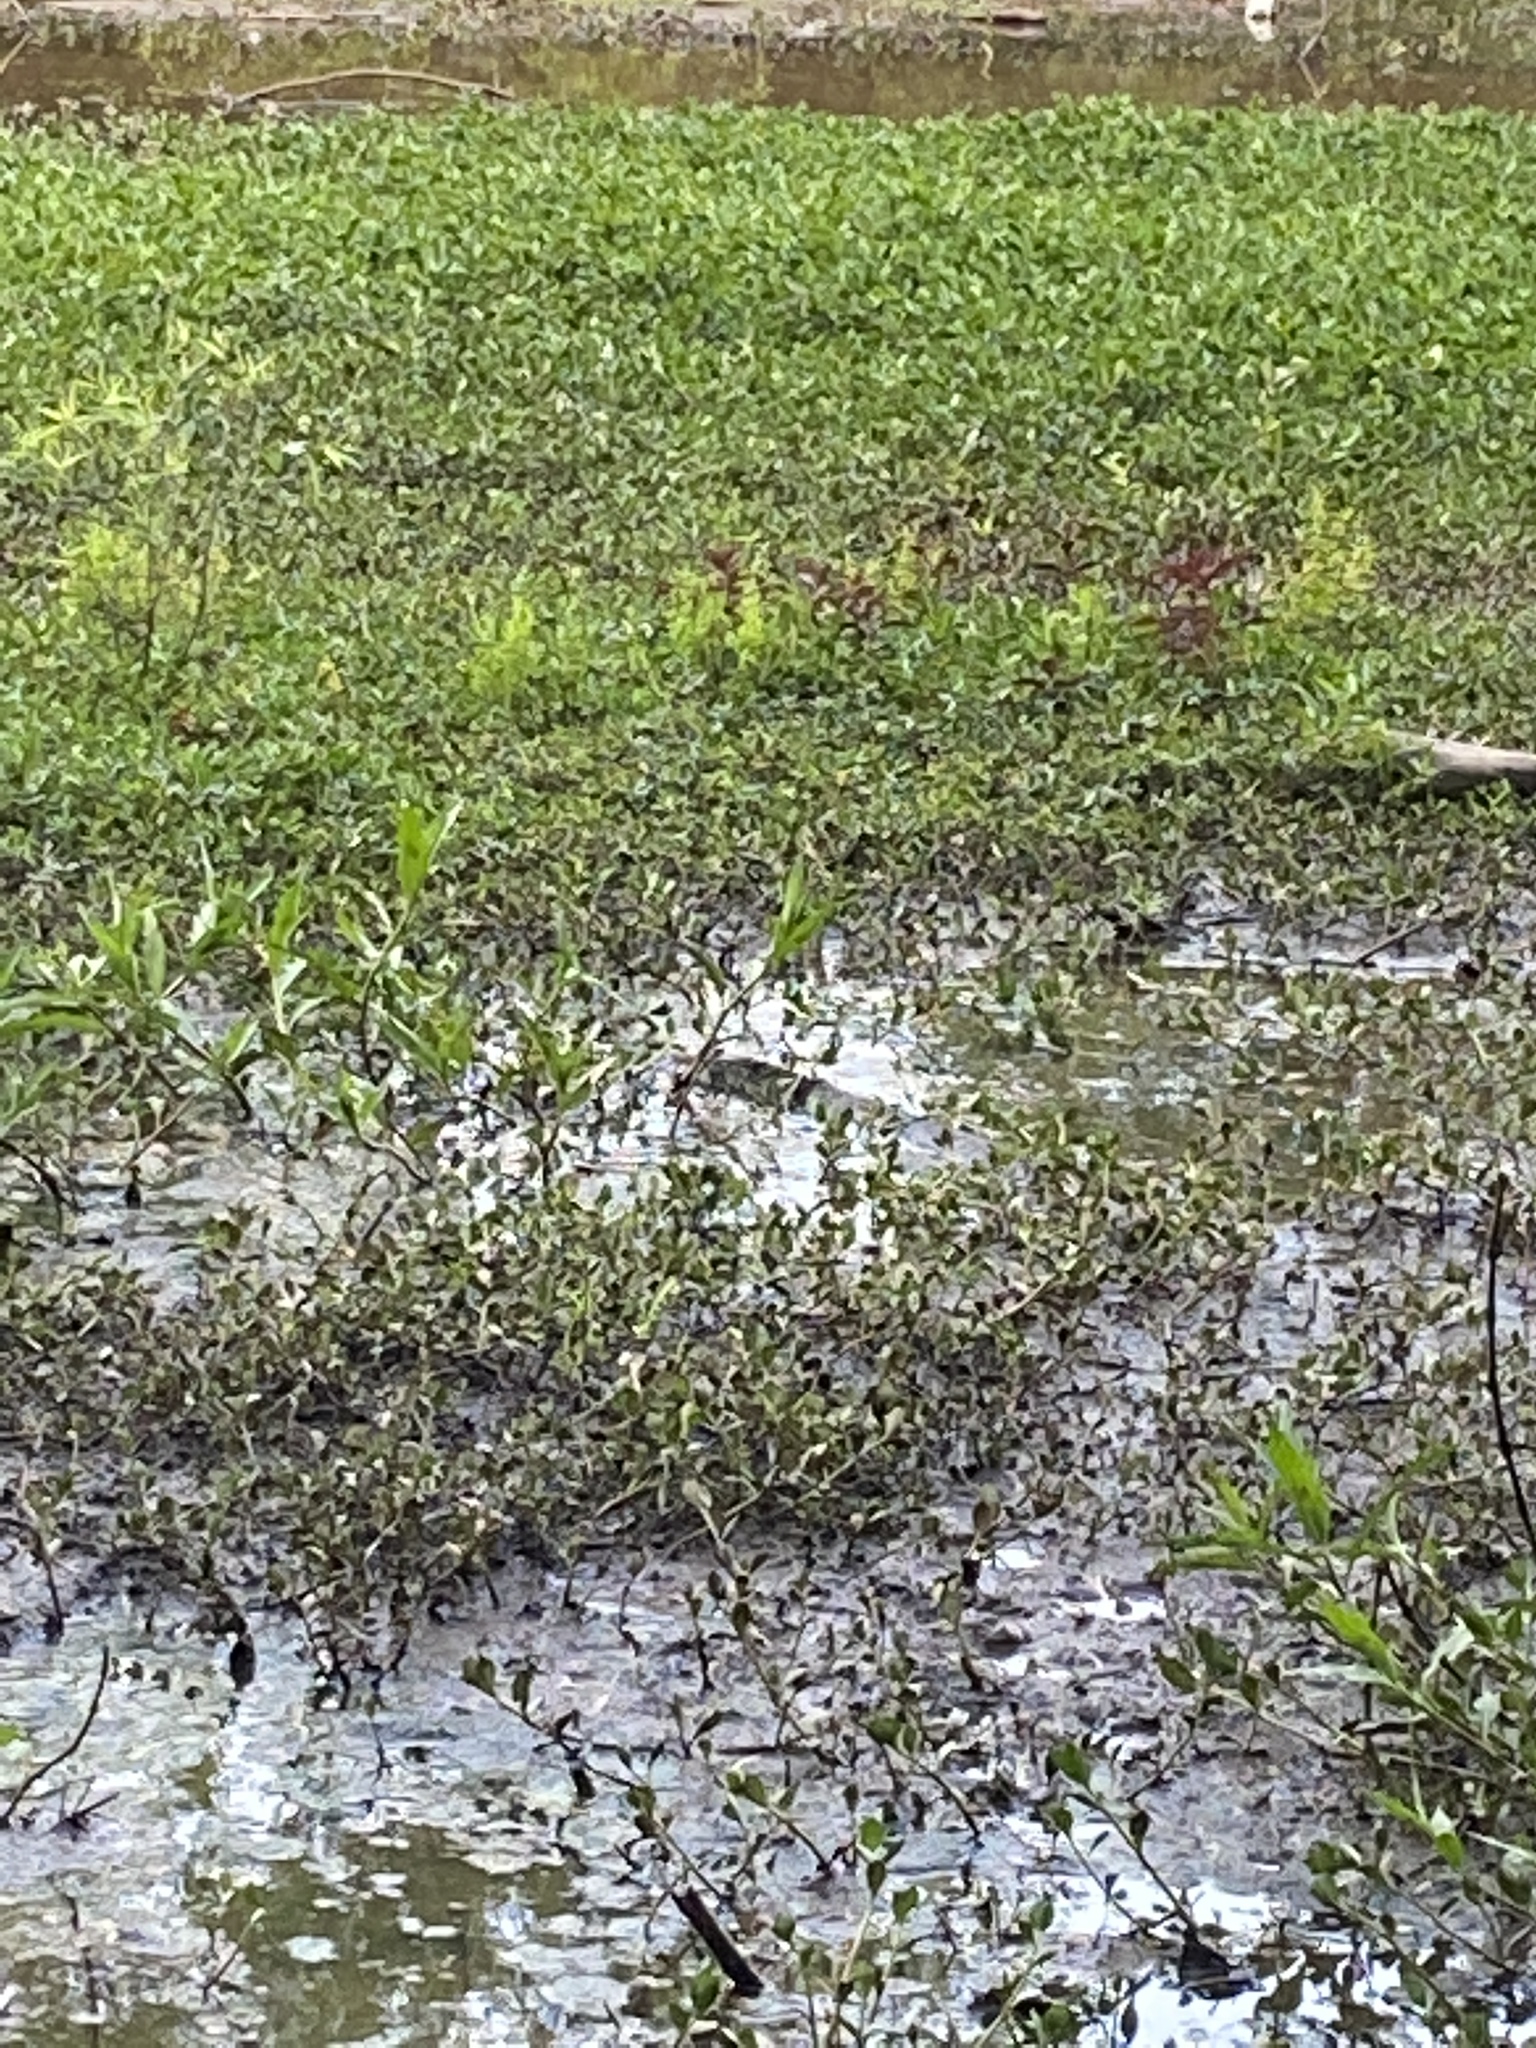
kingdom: Plantae
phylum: Tracheophyta
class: Magnoliopsida
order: Caryophyllales
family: Amaranthaceae
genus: Alternanthera
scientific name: Alternanthera philoxeroides
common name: Alligatorweed
